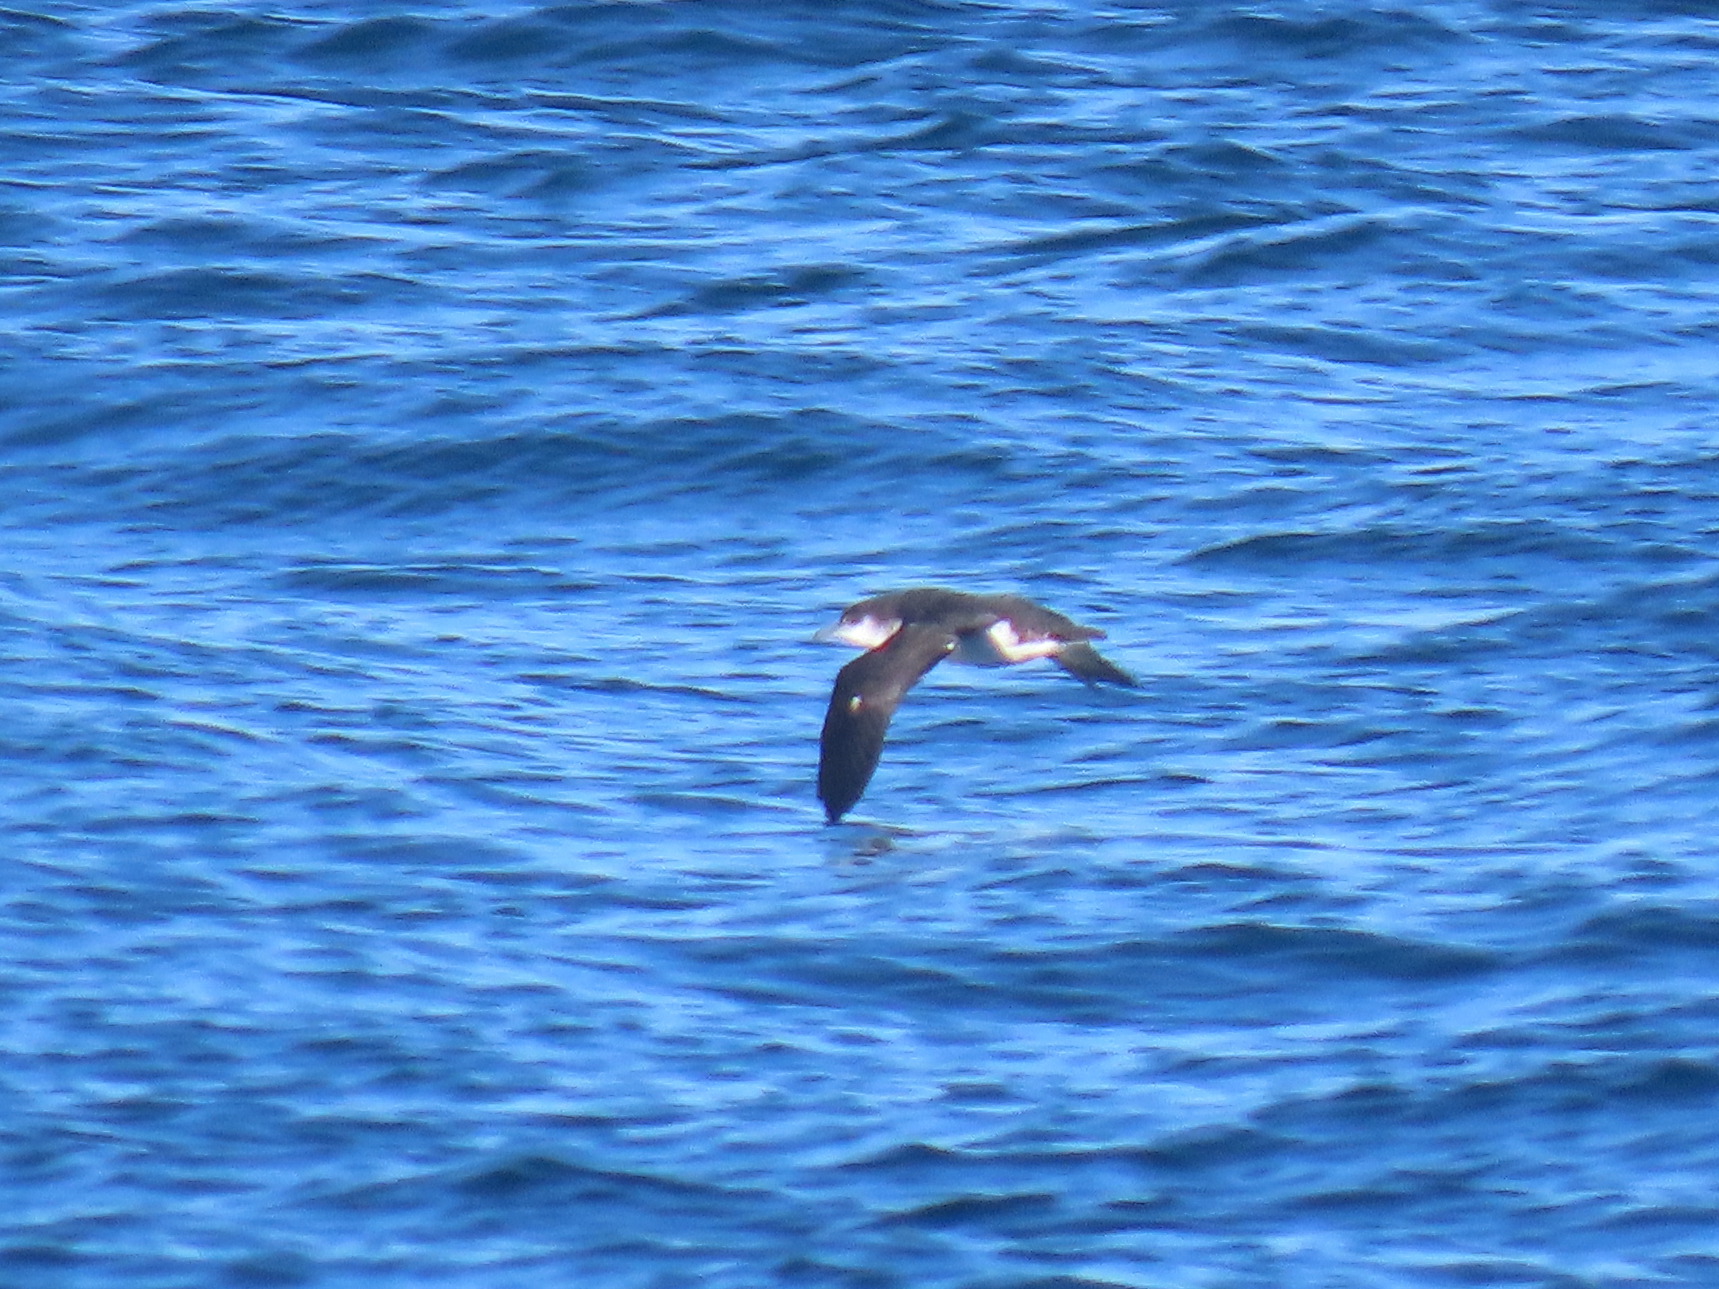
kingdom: Animalia
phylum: Chordata
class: Aves
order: Procellariiformes
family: Procellariidae
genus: Puffinus
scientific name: Puffinus puffinus
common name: Manx shearwater
